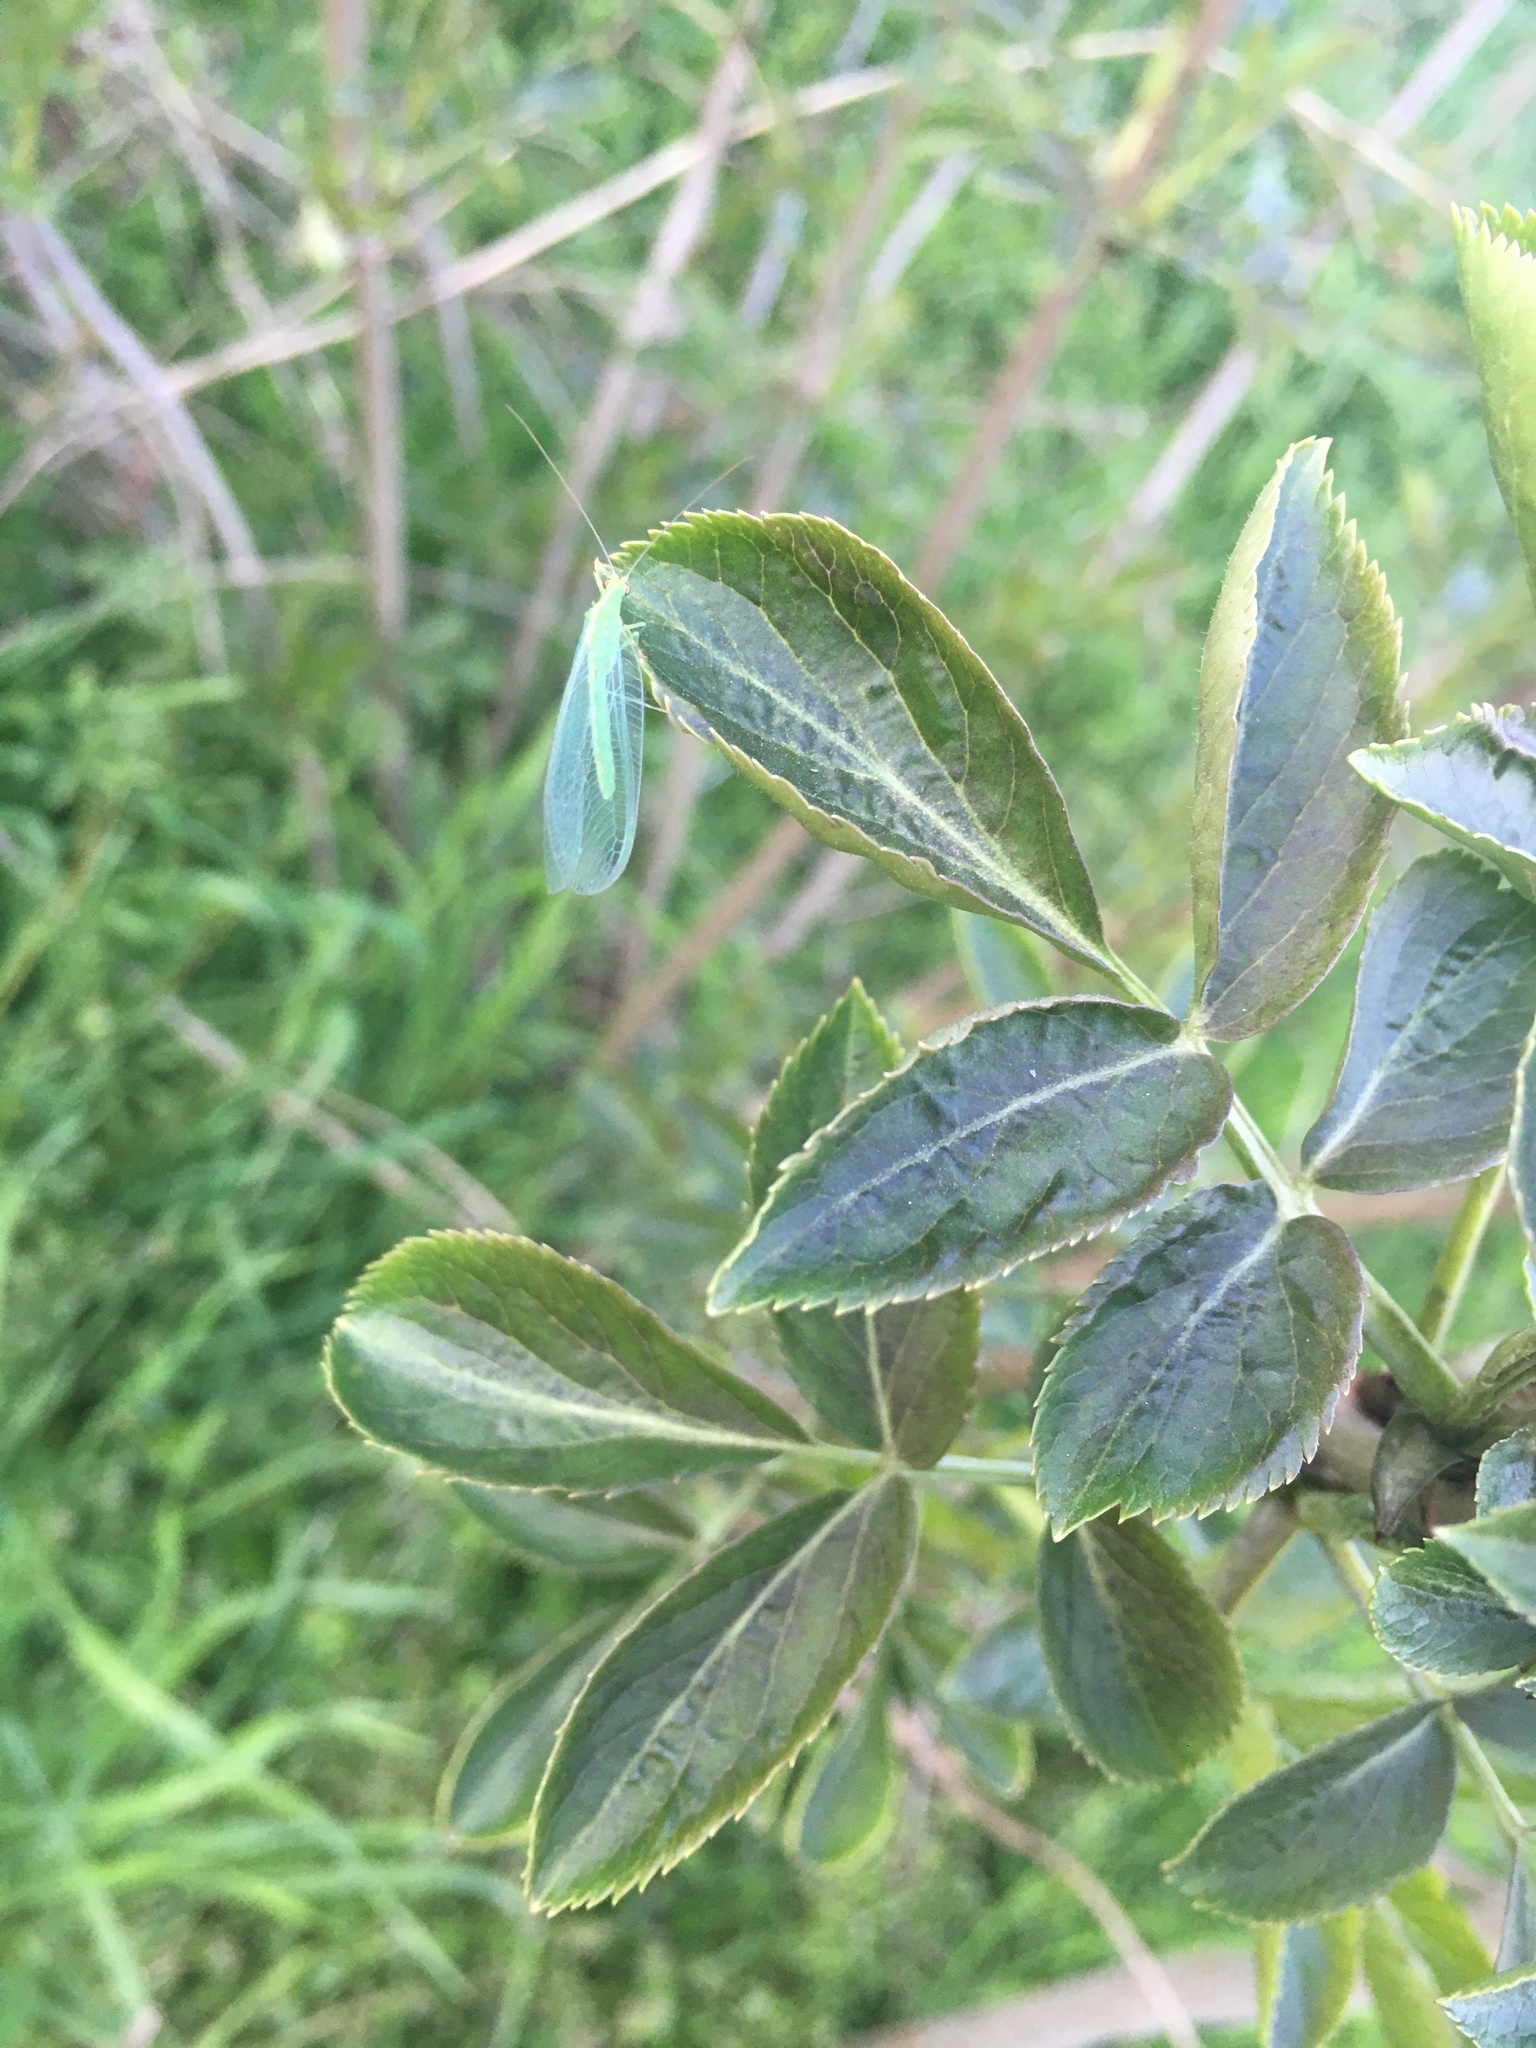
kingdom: Animalia
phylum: Arthropoda
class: Insecta
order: Neuroptera
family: Chrysopidae
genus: Chrysoperla
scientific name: Chrysoperla
